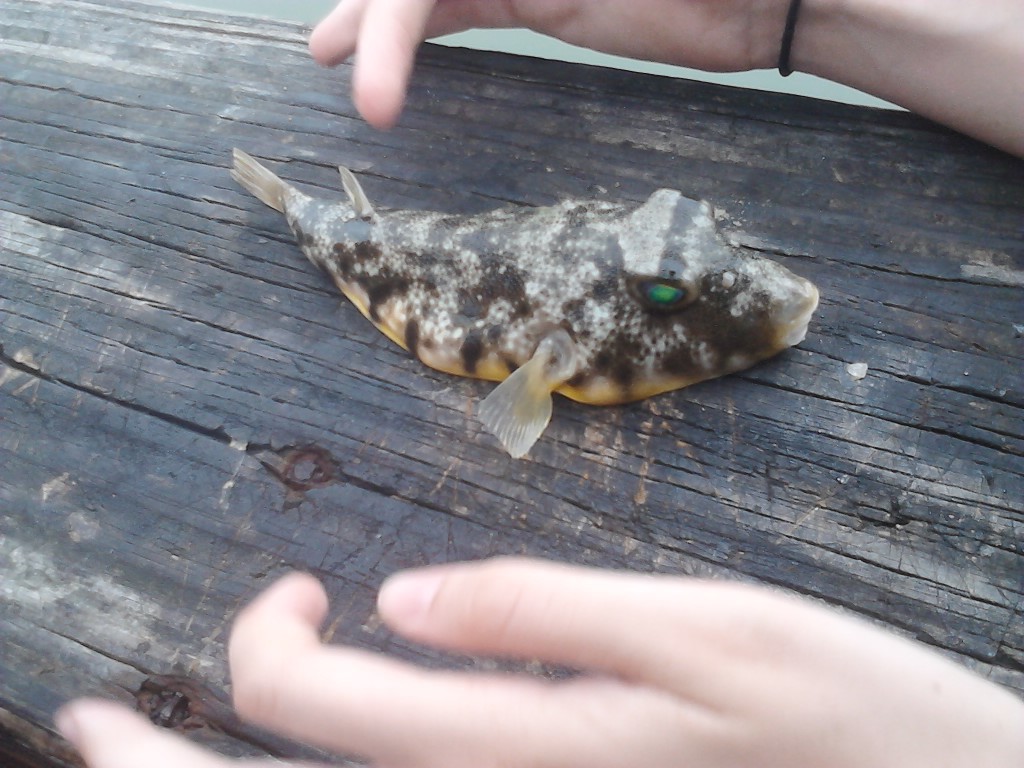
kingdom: Animalia
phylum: Chordata
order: Tetraodontiformes
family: Tetraodontidae
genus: Sphoeroides
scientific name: Sphoeroides maculatus
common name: Northern puffer
